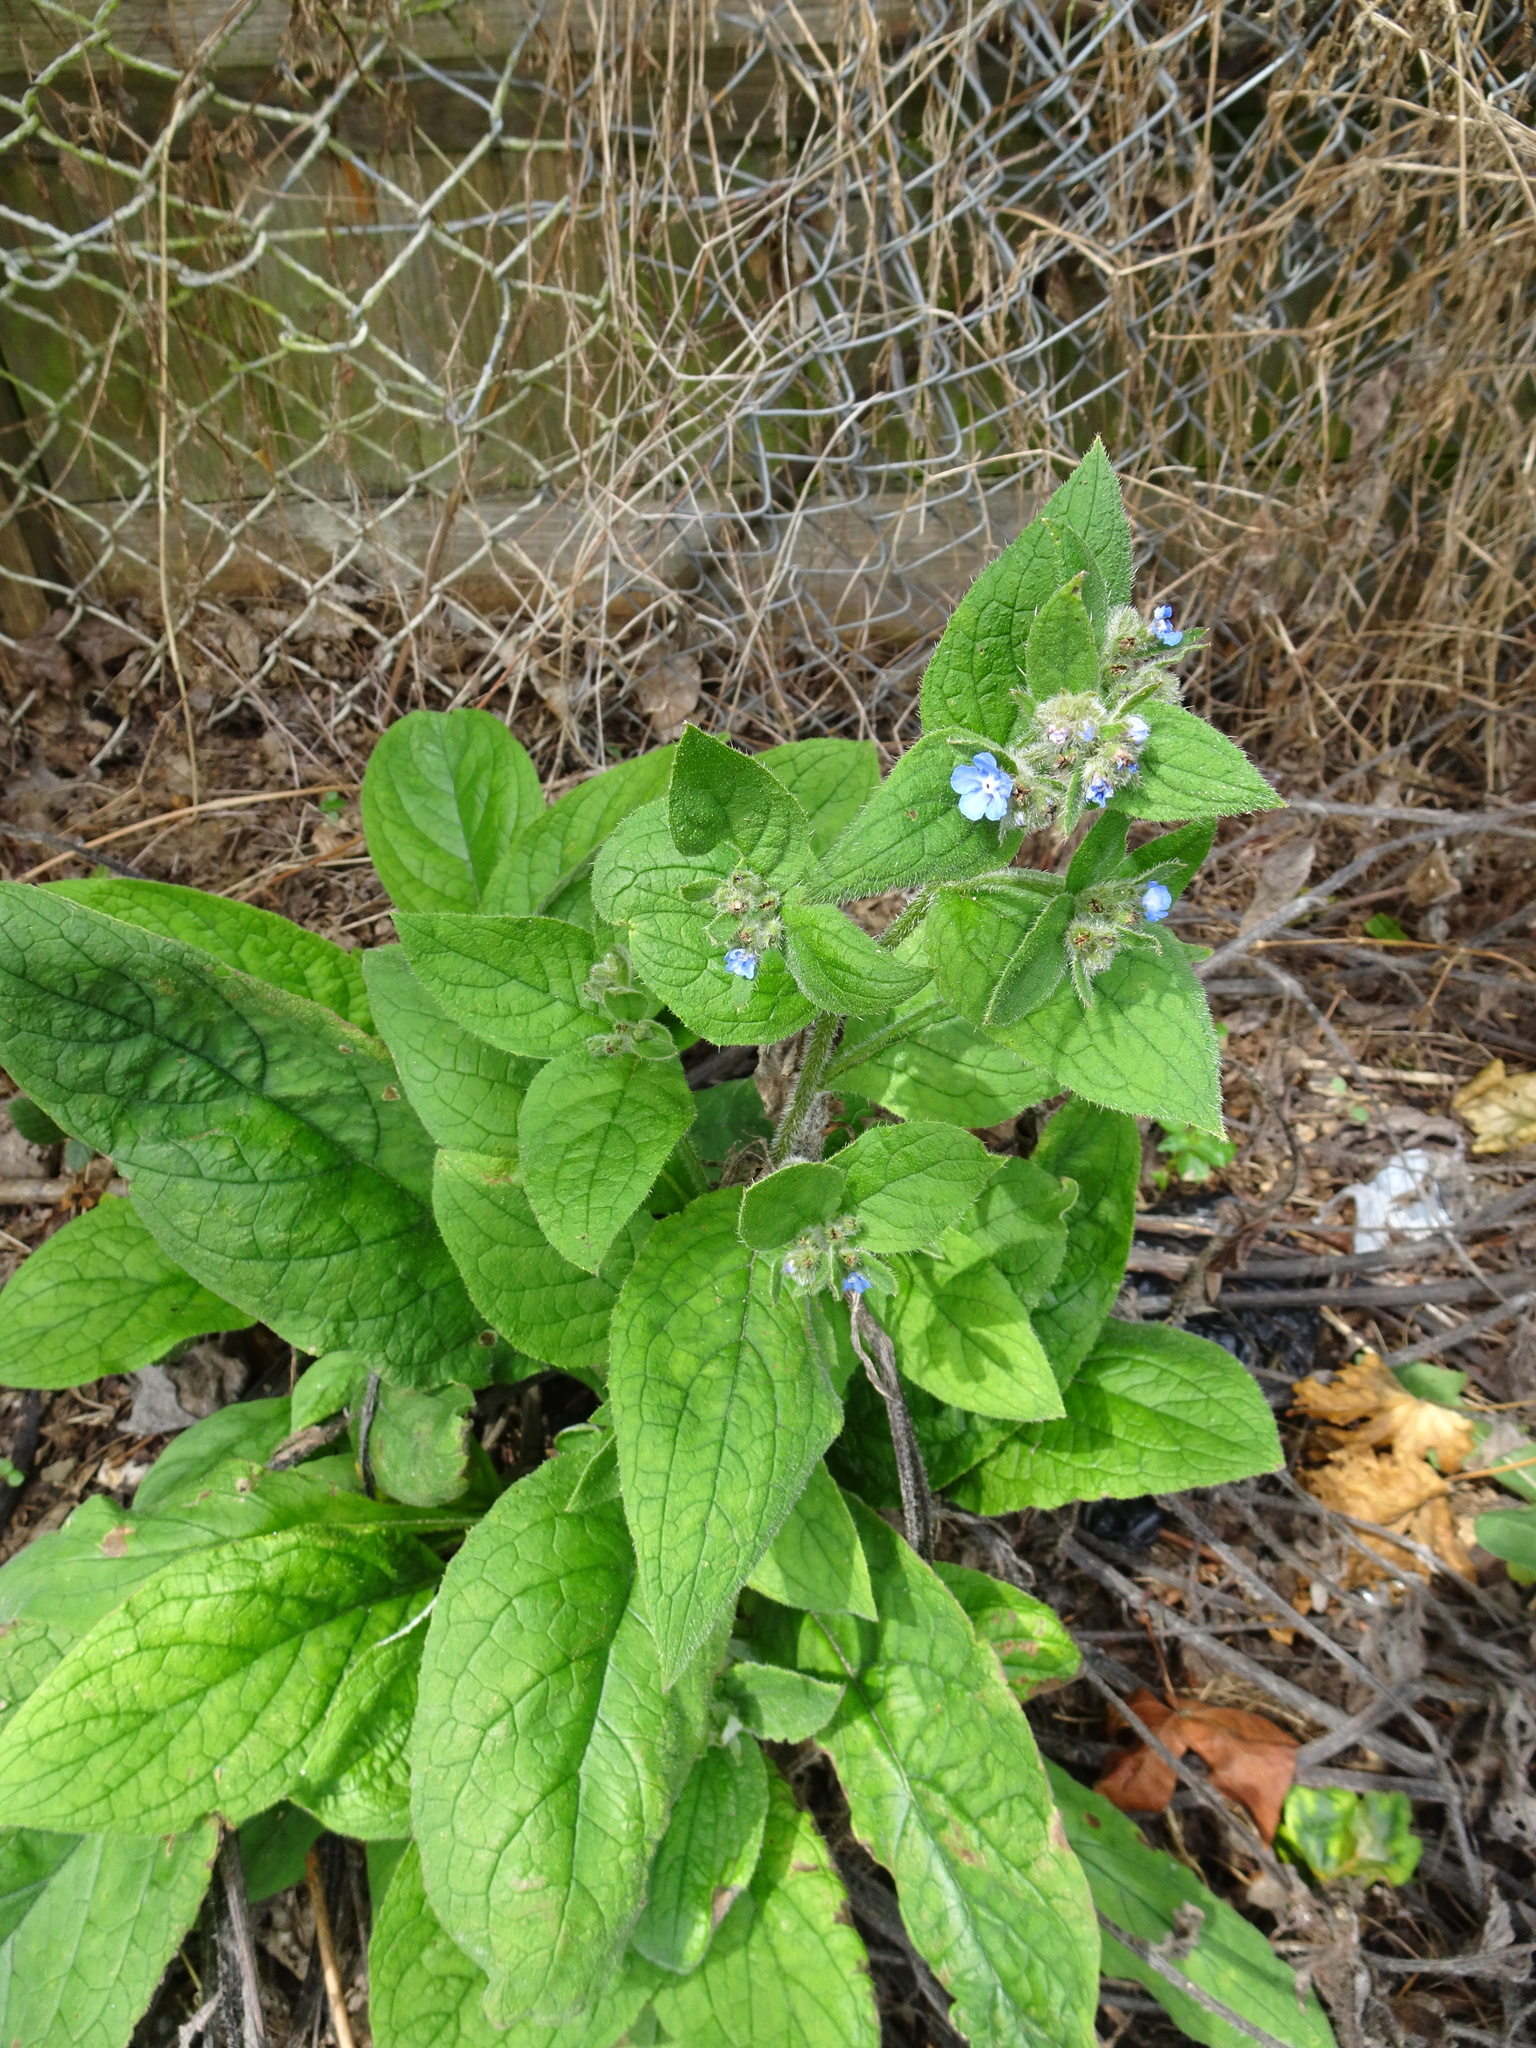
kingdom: Plantae
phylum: Tracheophyta
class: Magnoliopsida
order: Boraginales
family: Boraginaceae
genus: Pentaglottis
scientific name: Pentaglottis sempervirens
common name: Green alkanet
